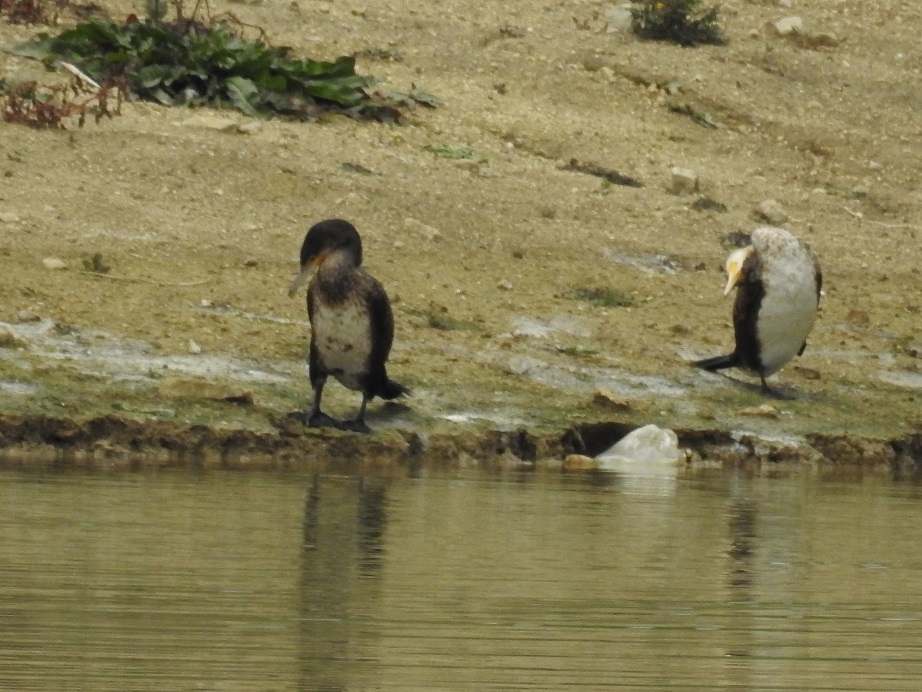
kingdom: Animalia
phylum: Chordata
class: Aves
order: Suliformes
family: Phalacrocoracidae
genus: Phalacrocorax
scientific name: Phalacrocorax carbo
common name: Great cormorant
